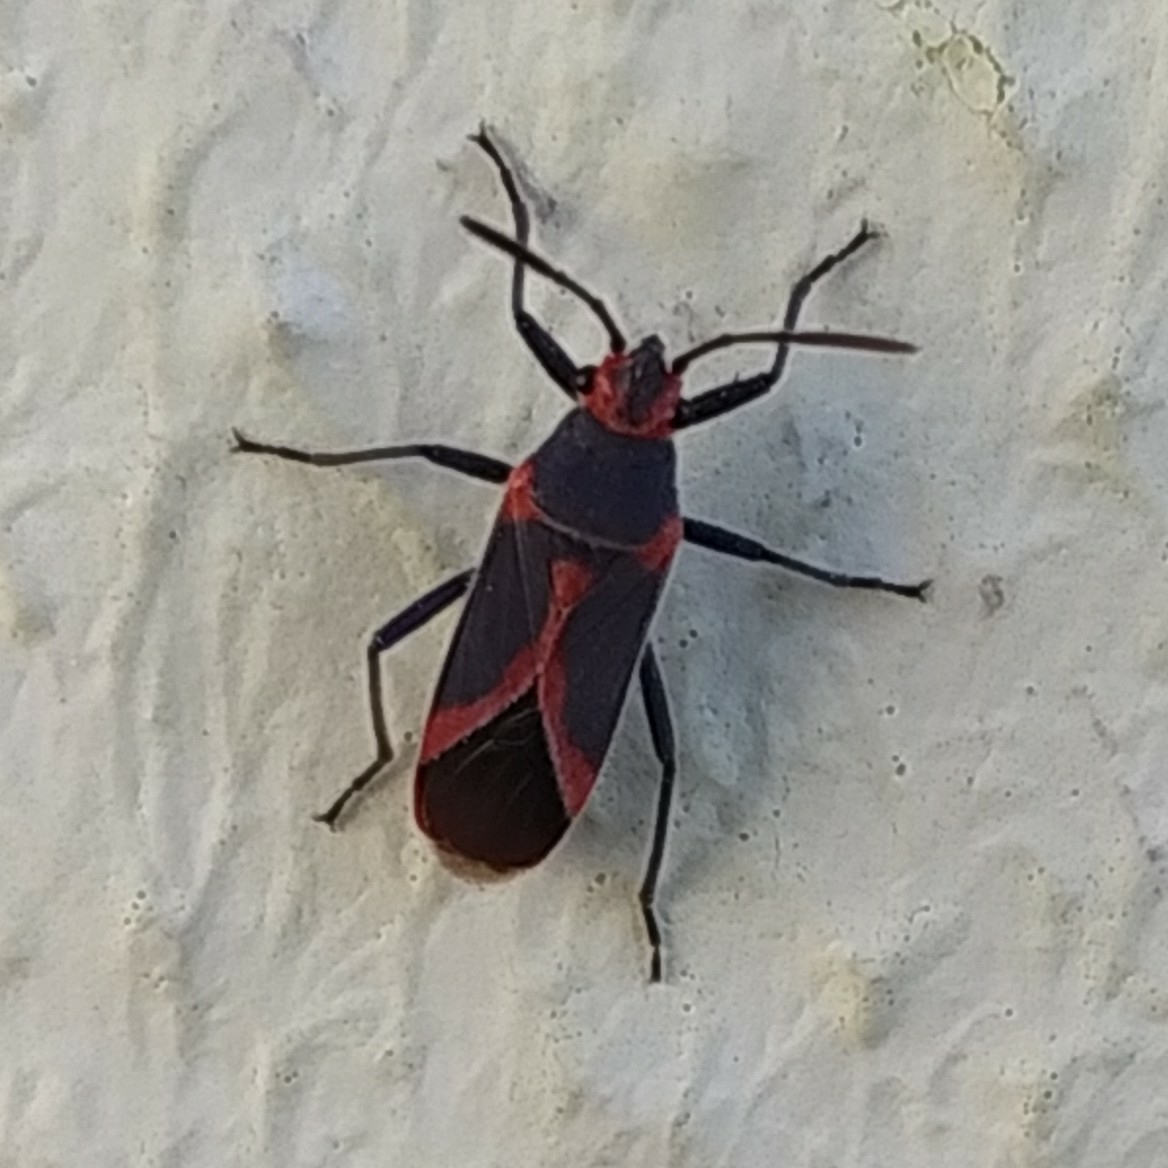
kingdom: Animalia
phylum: Arthropoda
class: Insecta
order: Hemiptera
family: Lygaeidae
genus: Caenocoris
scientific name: Caenocoris nerii
